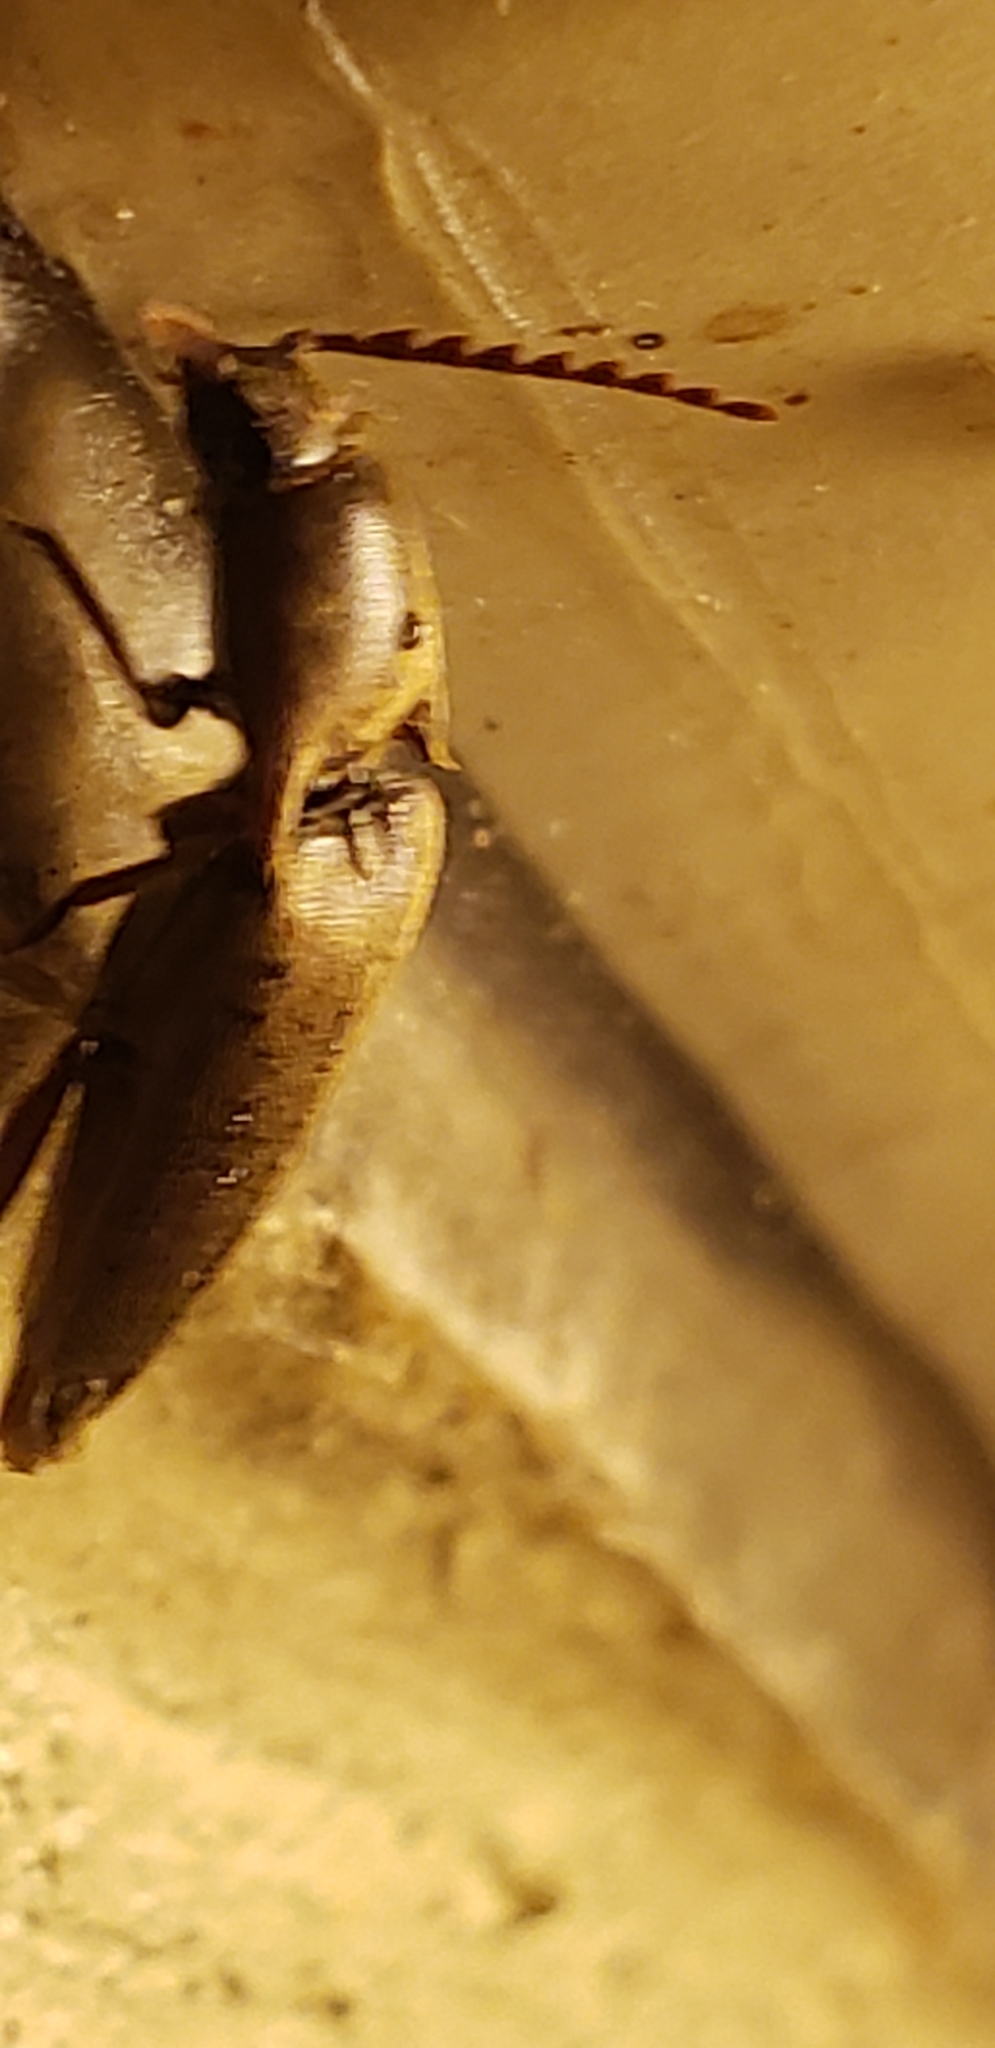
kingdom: Animalia
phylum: Arthropoda
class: Insecta
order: Coleoptera
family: Elateridae
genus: Diplostethus
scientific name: Diplostethus
